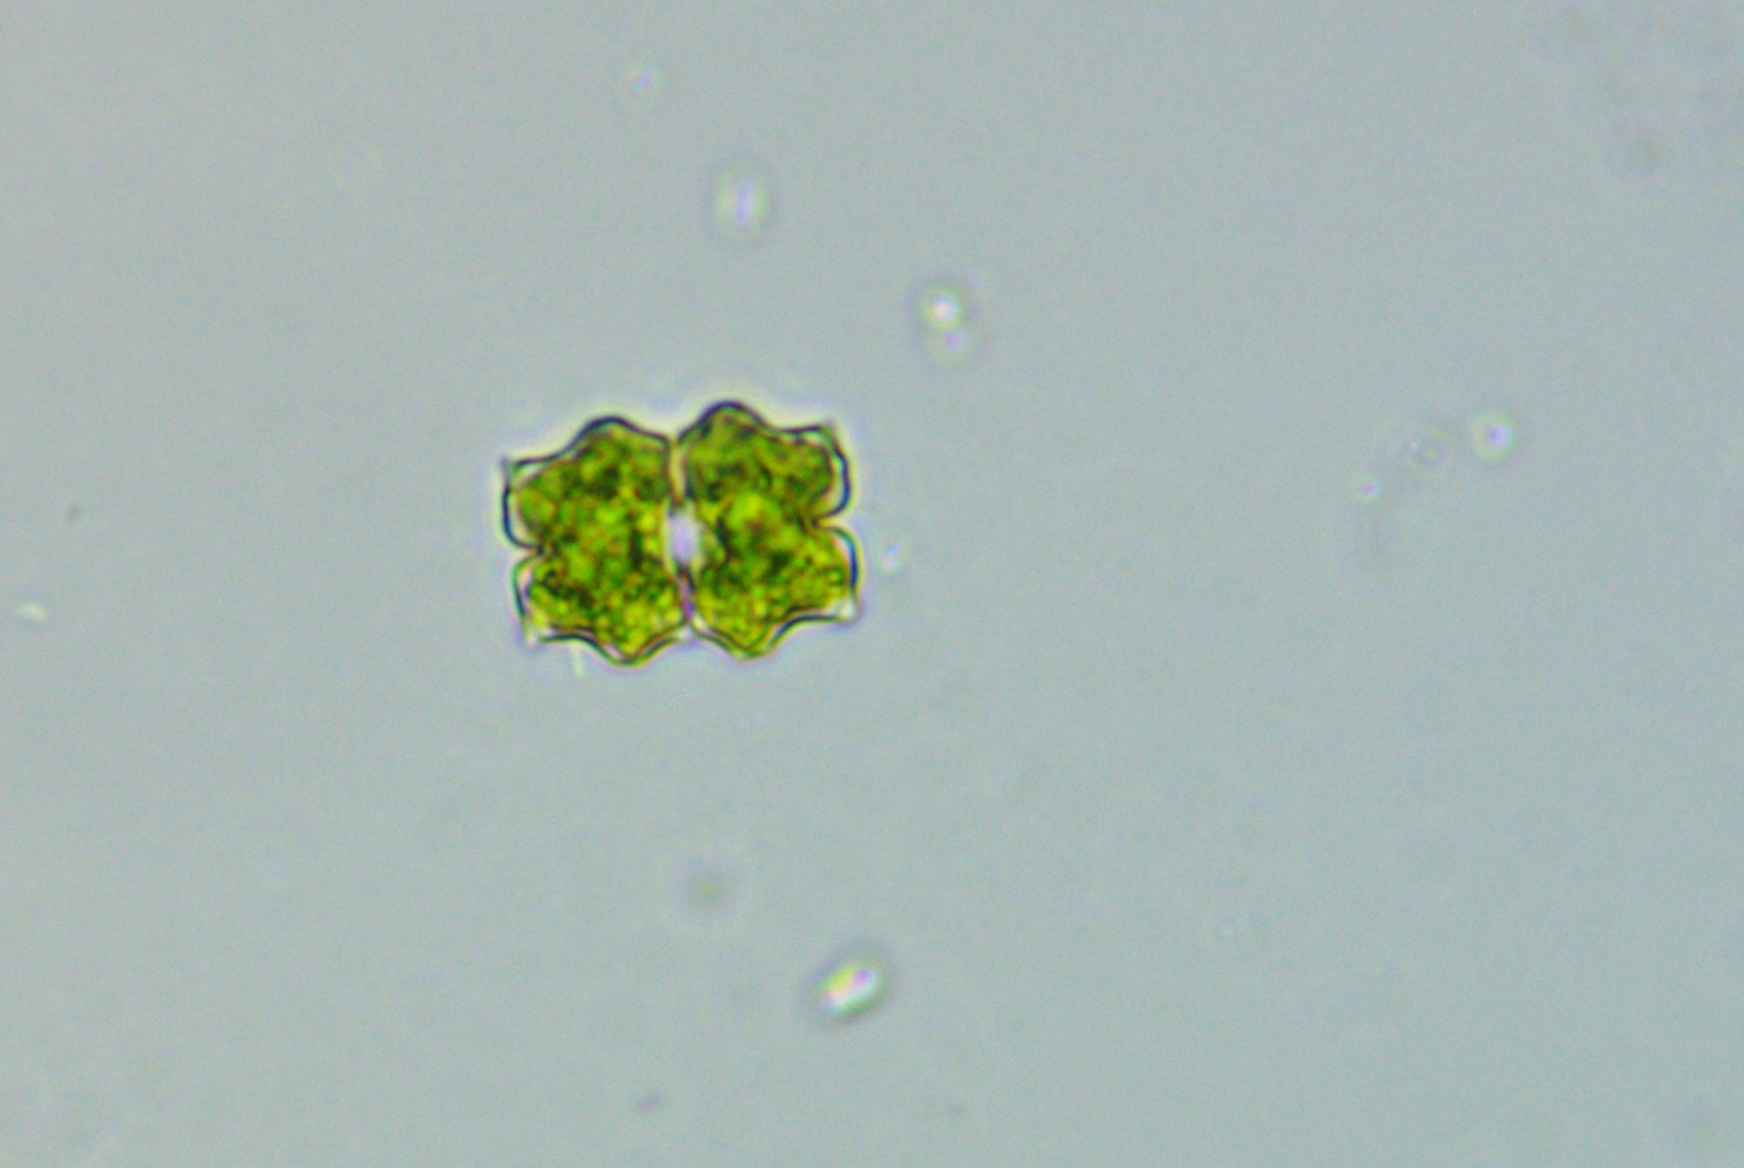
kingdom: Plantae
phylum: Charophyta
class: Conjugatophyceae
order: Desmidiales
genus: Euastrum
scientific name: Euastrum abruptum
